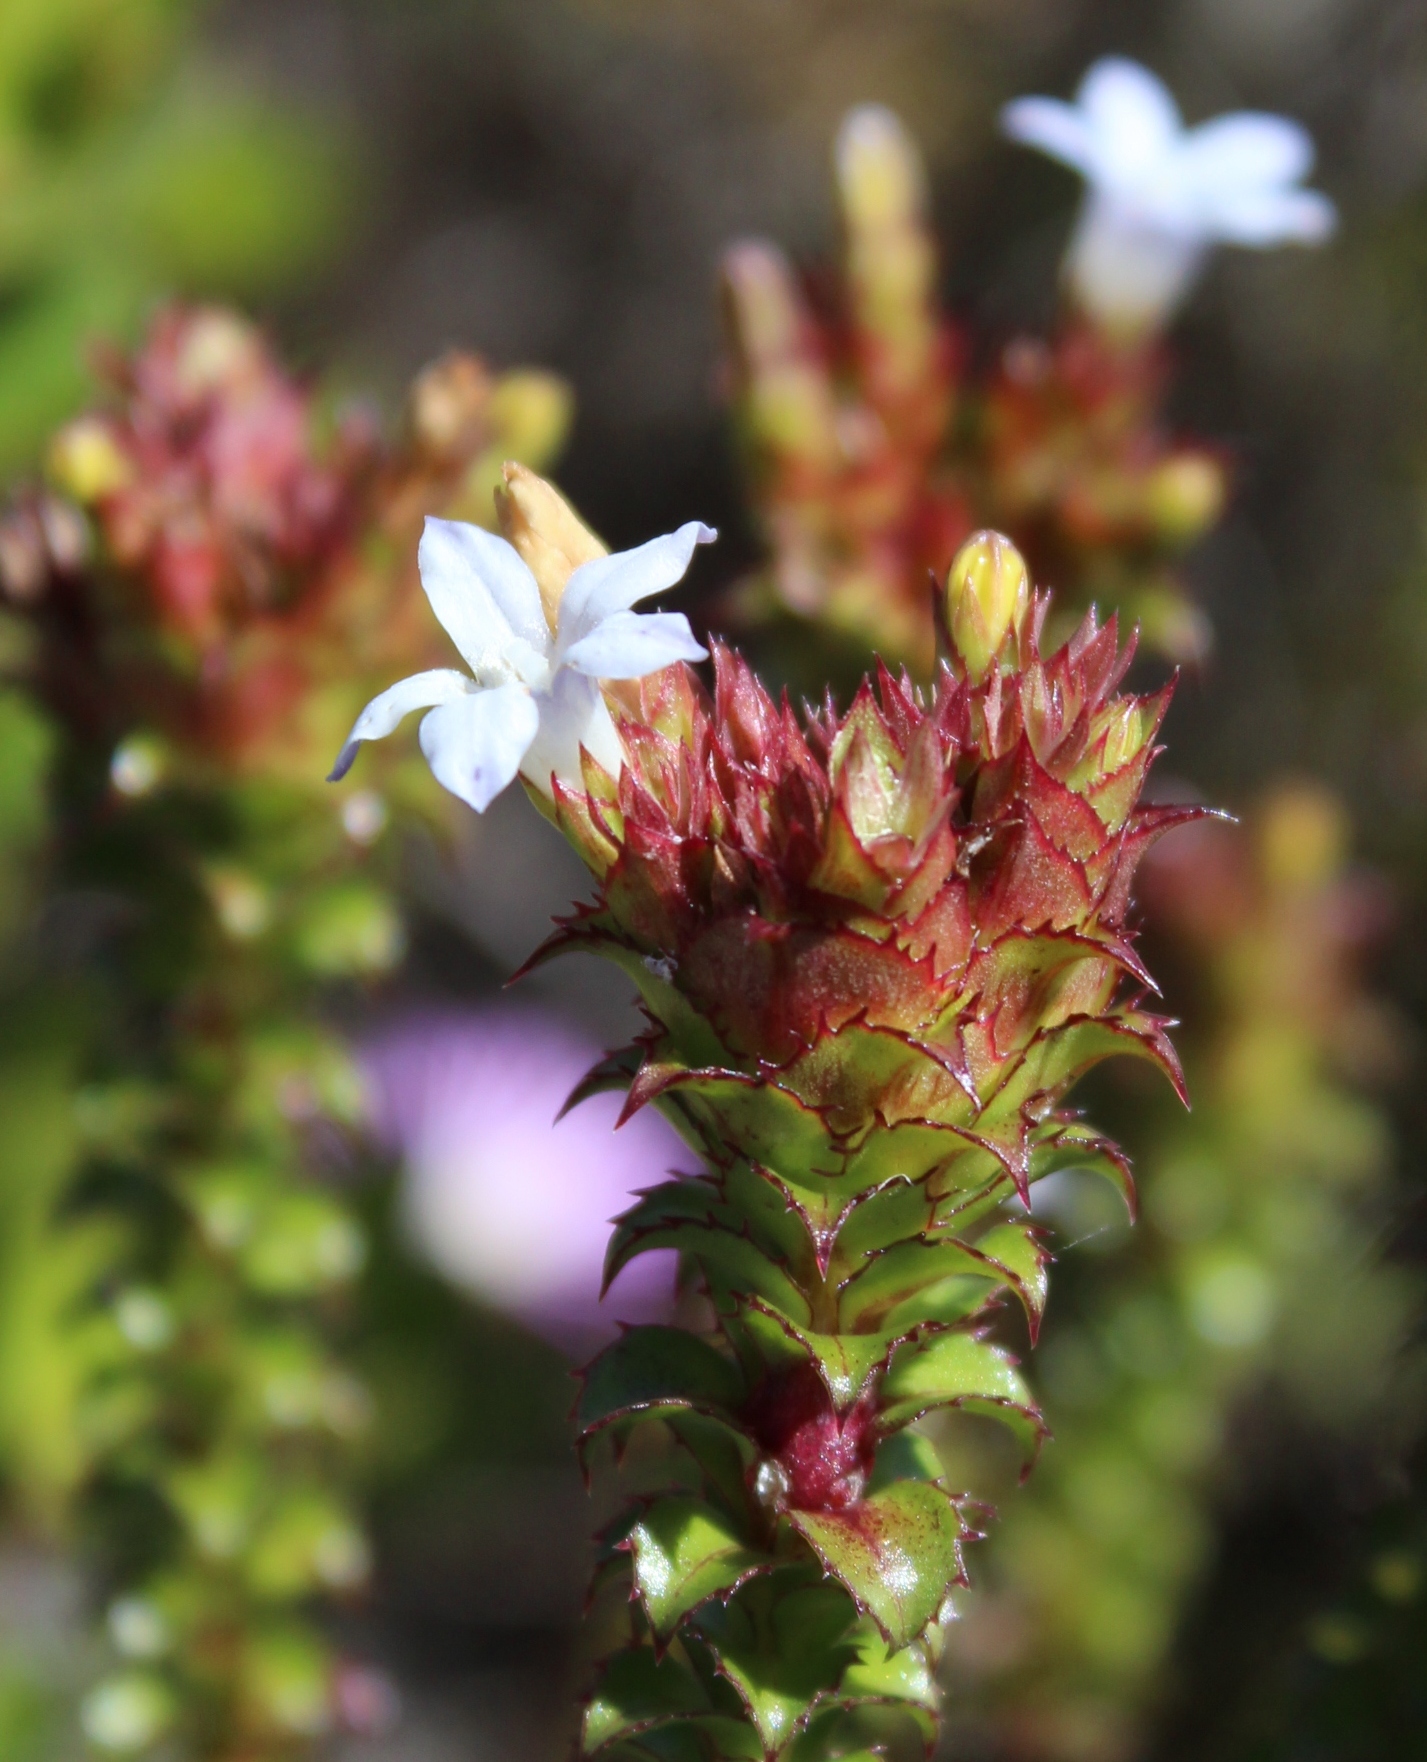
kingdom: Plantae
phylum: Tracheophyta
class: Magnoliopsida
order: Asterales
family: Campanulaceae
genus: Roella
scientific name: Roella amplexicaulis
